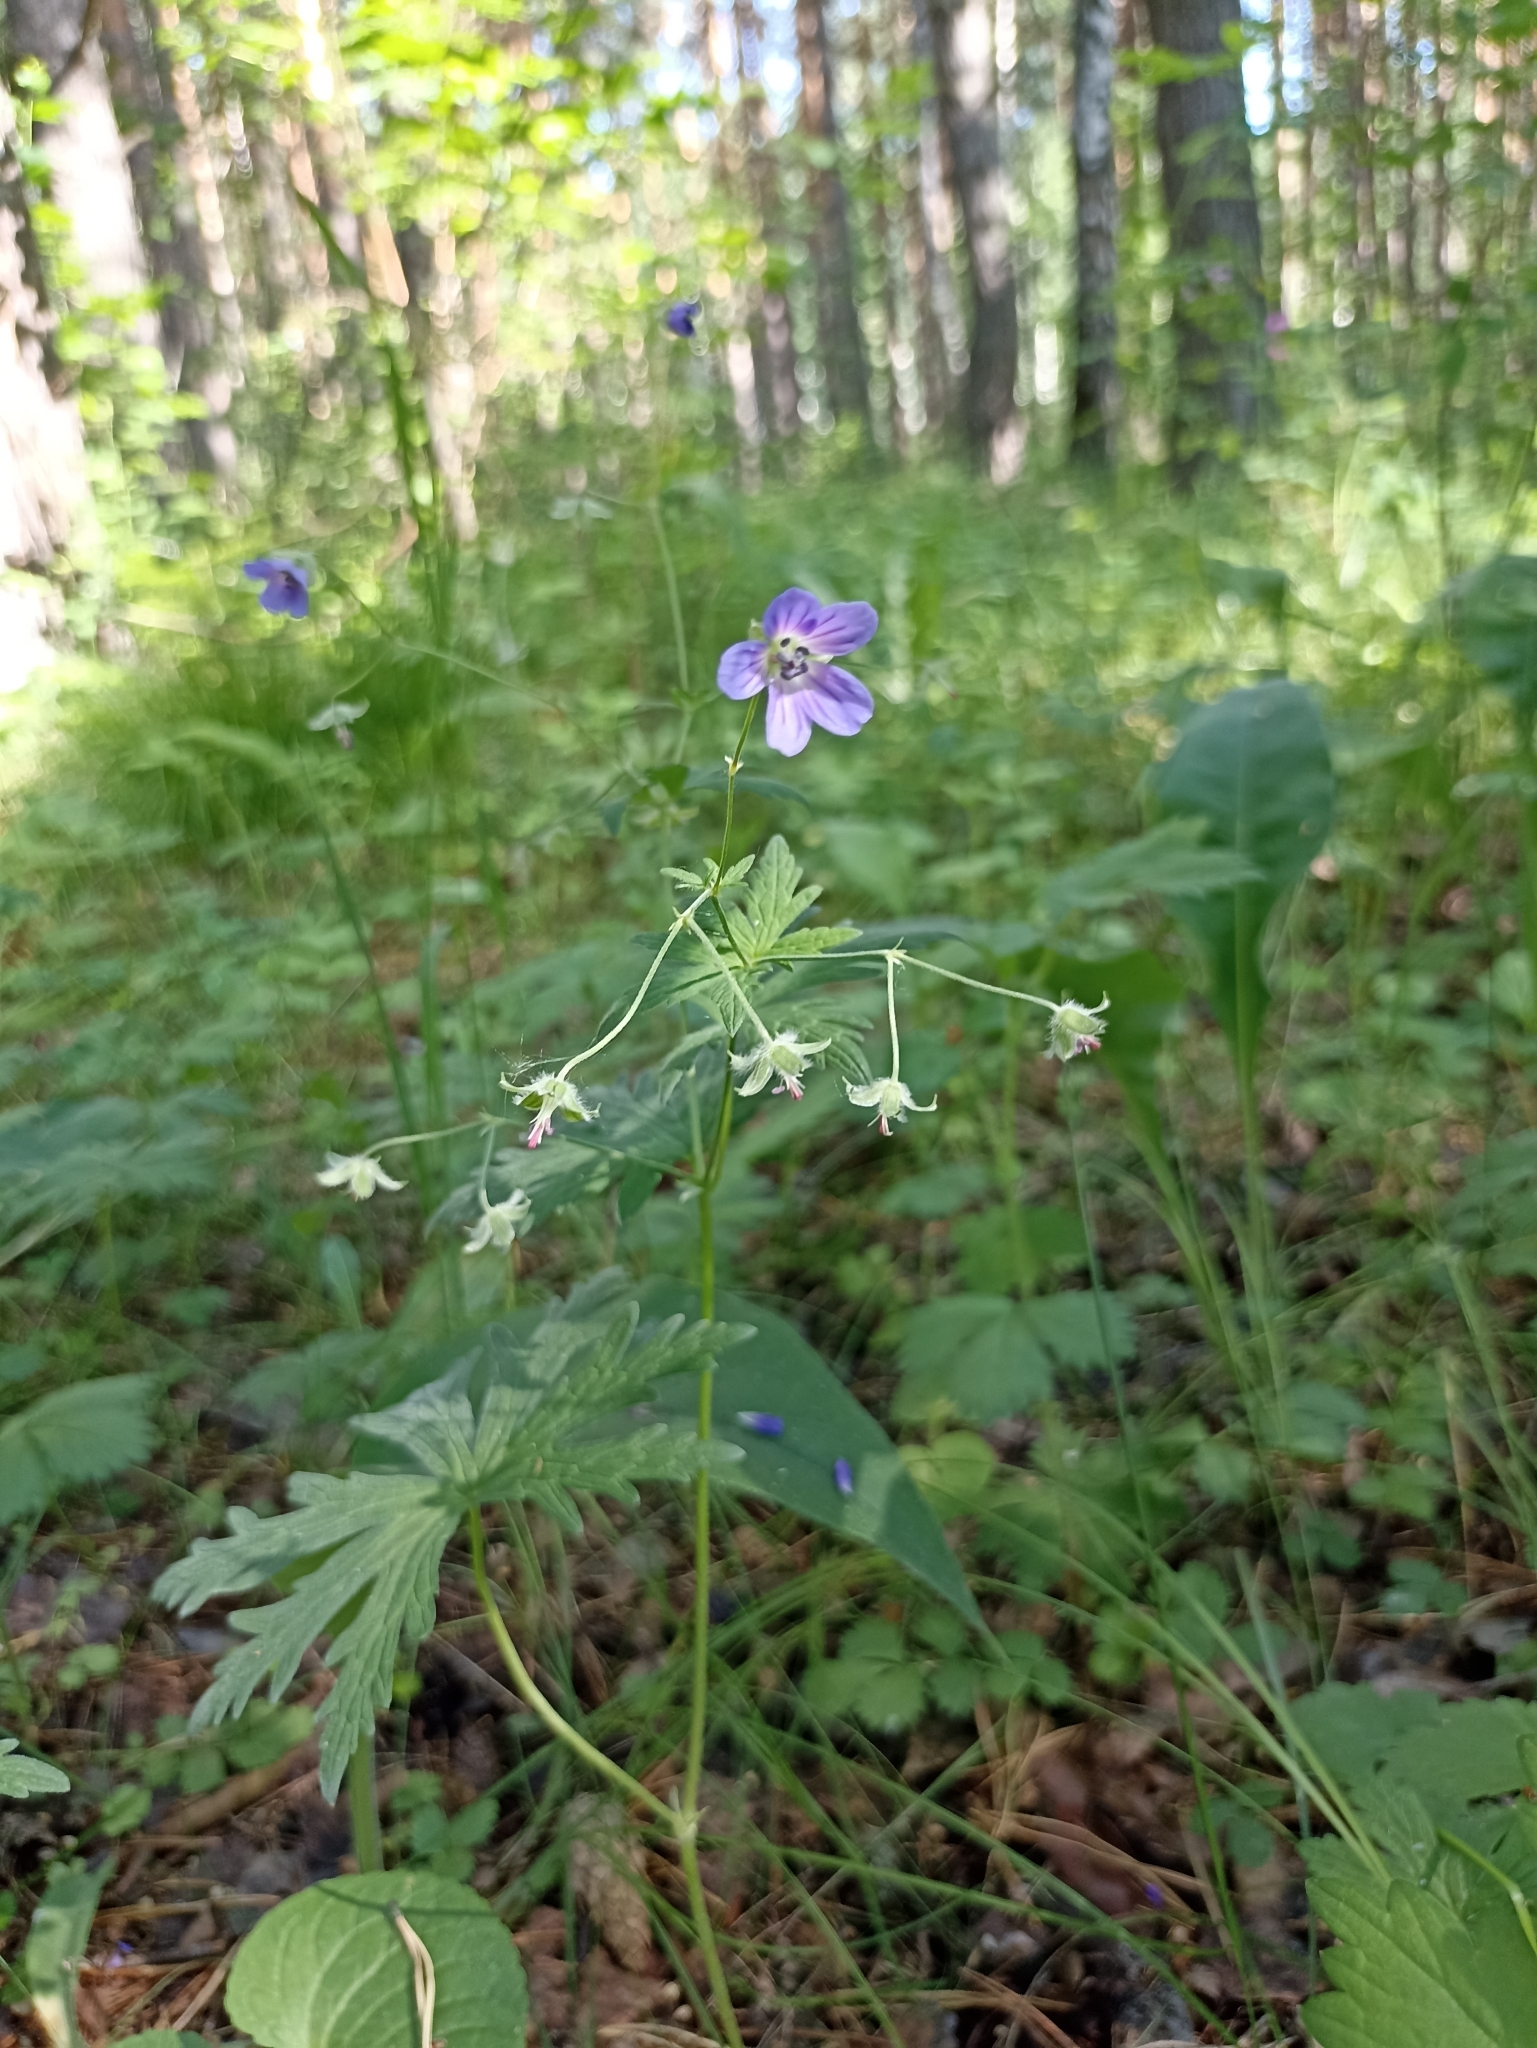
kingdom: Plantae
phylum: Tracheophyta
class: Magnoliopsida
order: Geraniales
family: Geraniaceae
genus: Geranium
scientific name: Geranium pseudosibiricum
